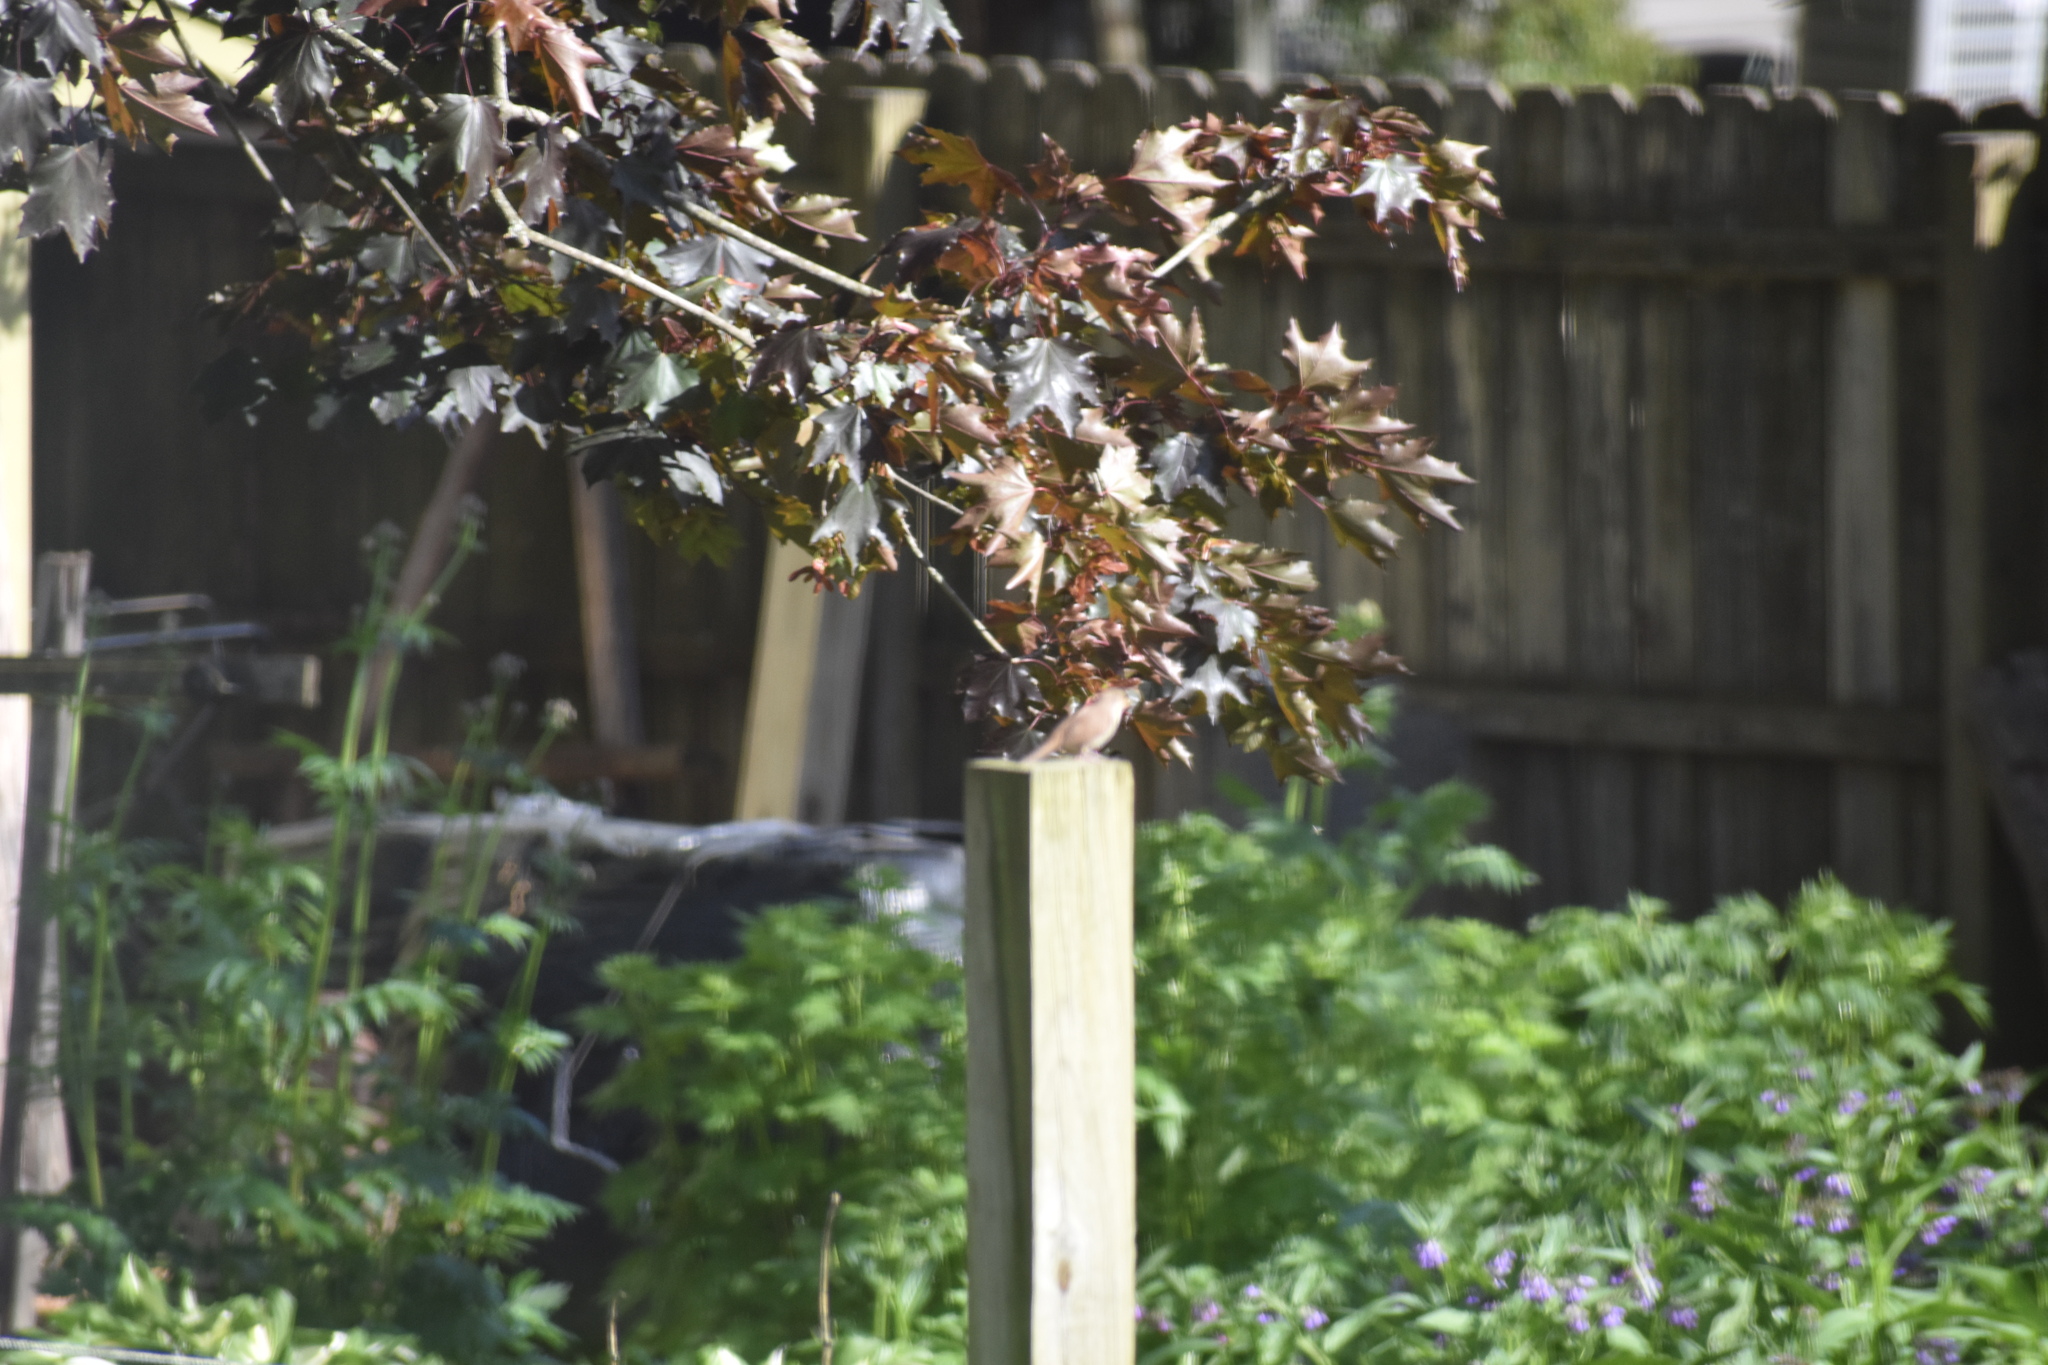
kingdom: Animalia
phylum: Chordata
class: Aves
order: Passeriformes
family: Troglodytidae
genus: Troglodytes
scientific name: Troglodytes aedon
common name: House wren
